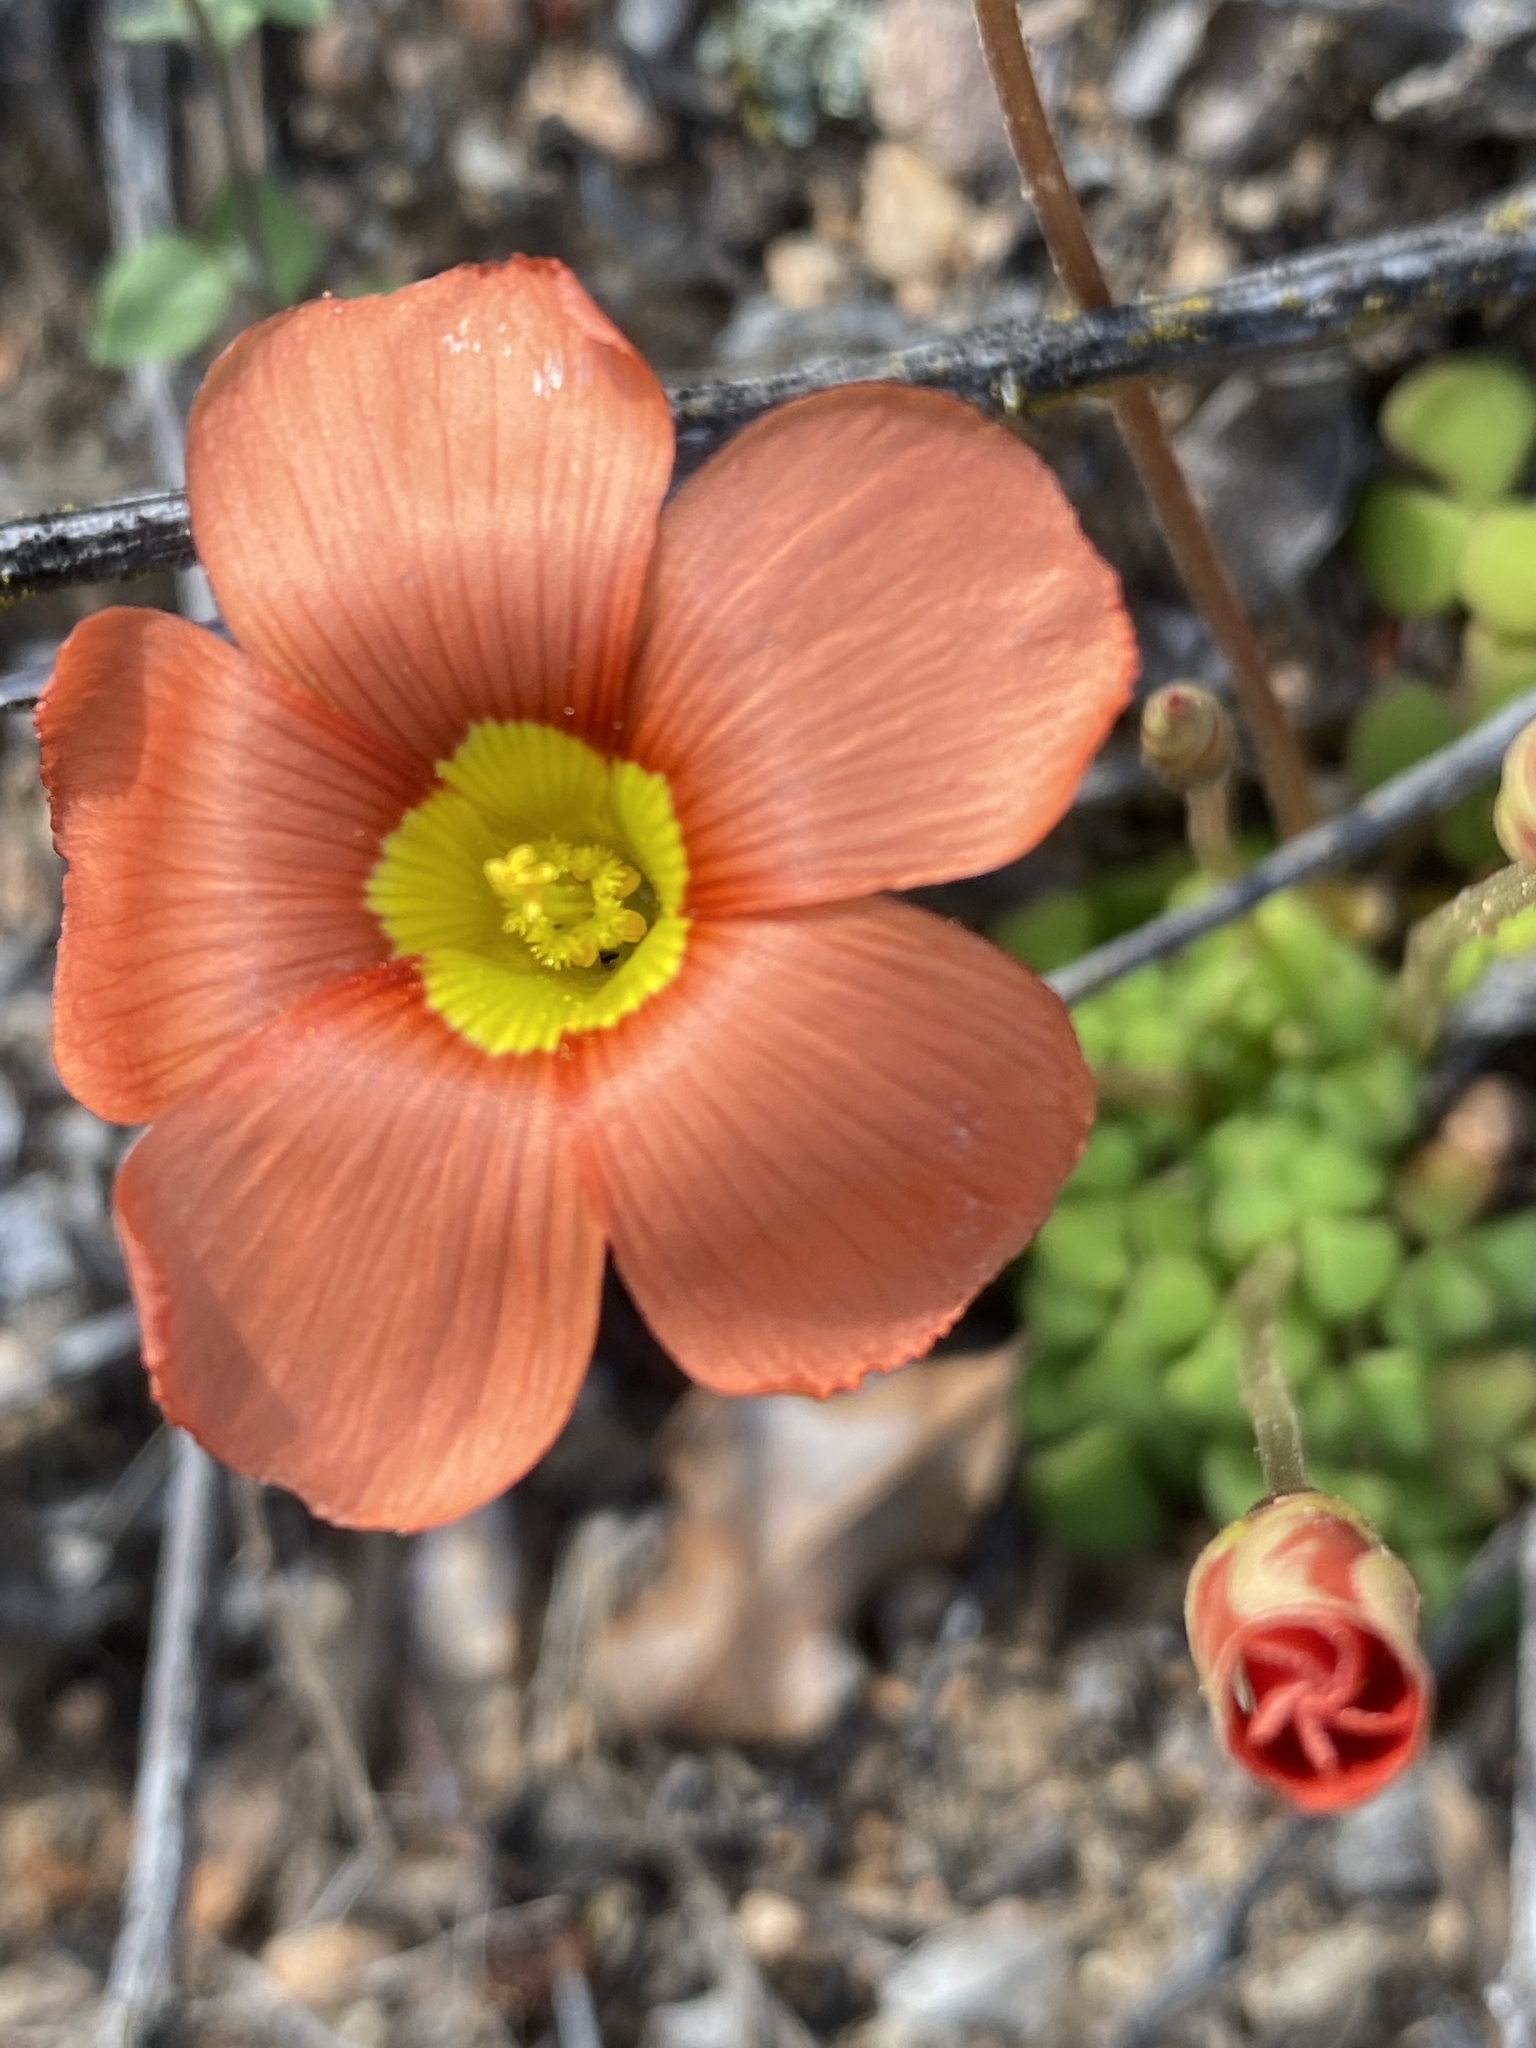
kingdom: Plantae
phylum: Tracheophyta
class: Magnoliopsida
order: Oxalidales
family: Oxalidaceae
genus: Oxalis
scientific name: Oxalis inaequalis
